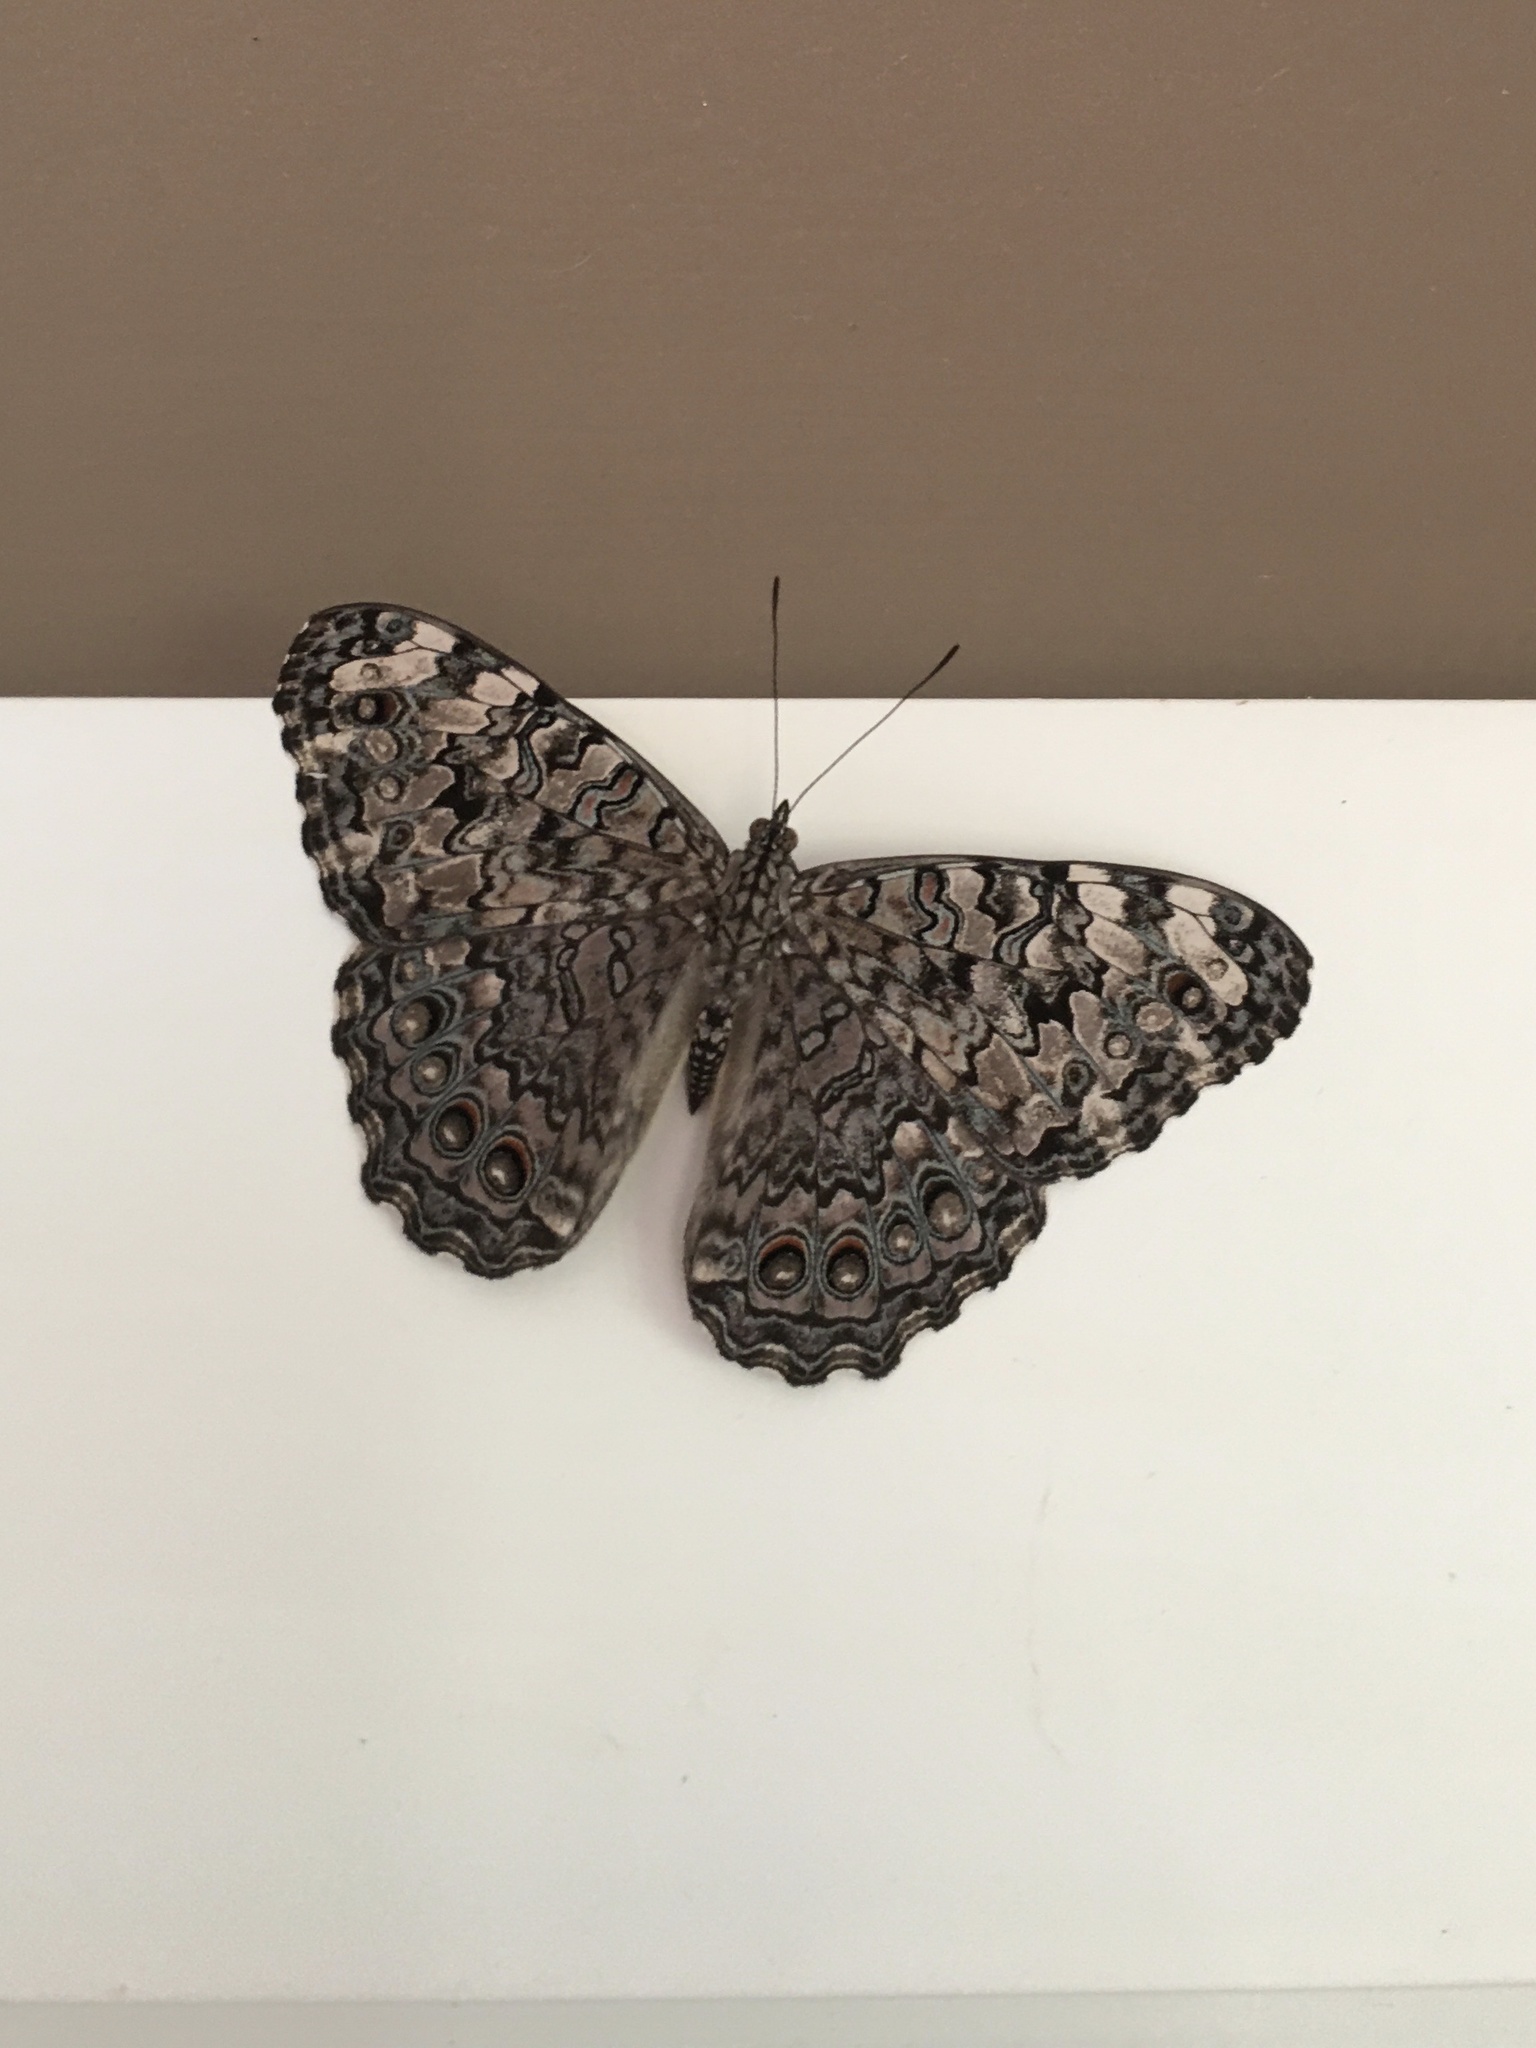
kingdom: Animalia
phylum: Arthropoda
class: Insecta
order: Lepidoptera
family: Nymphalidae
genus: Hamadryas
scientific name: Hamadryas februa
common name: Gray cracker
